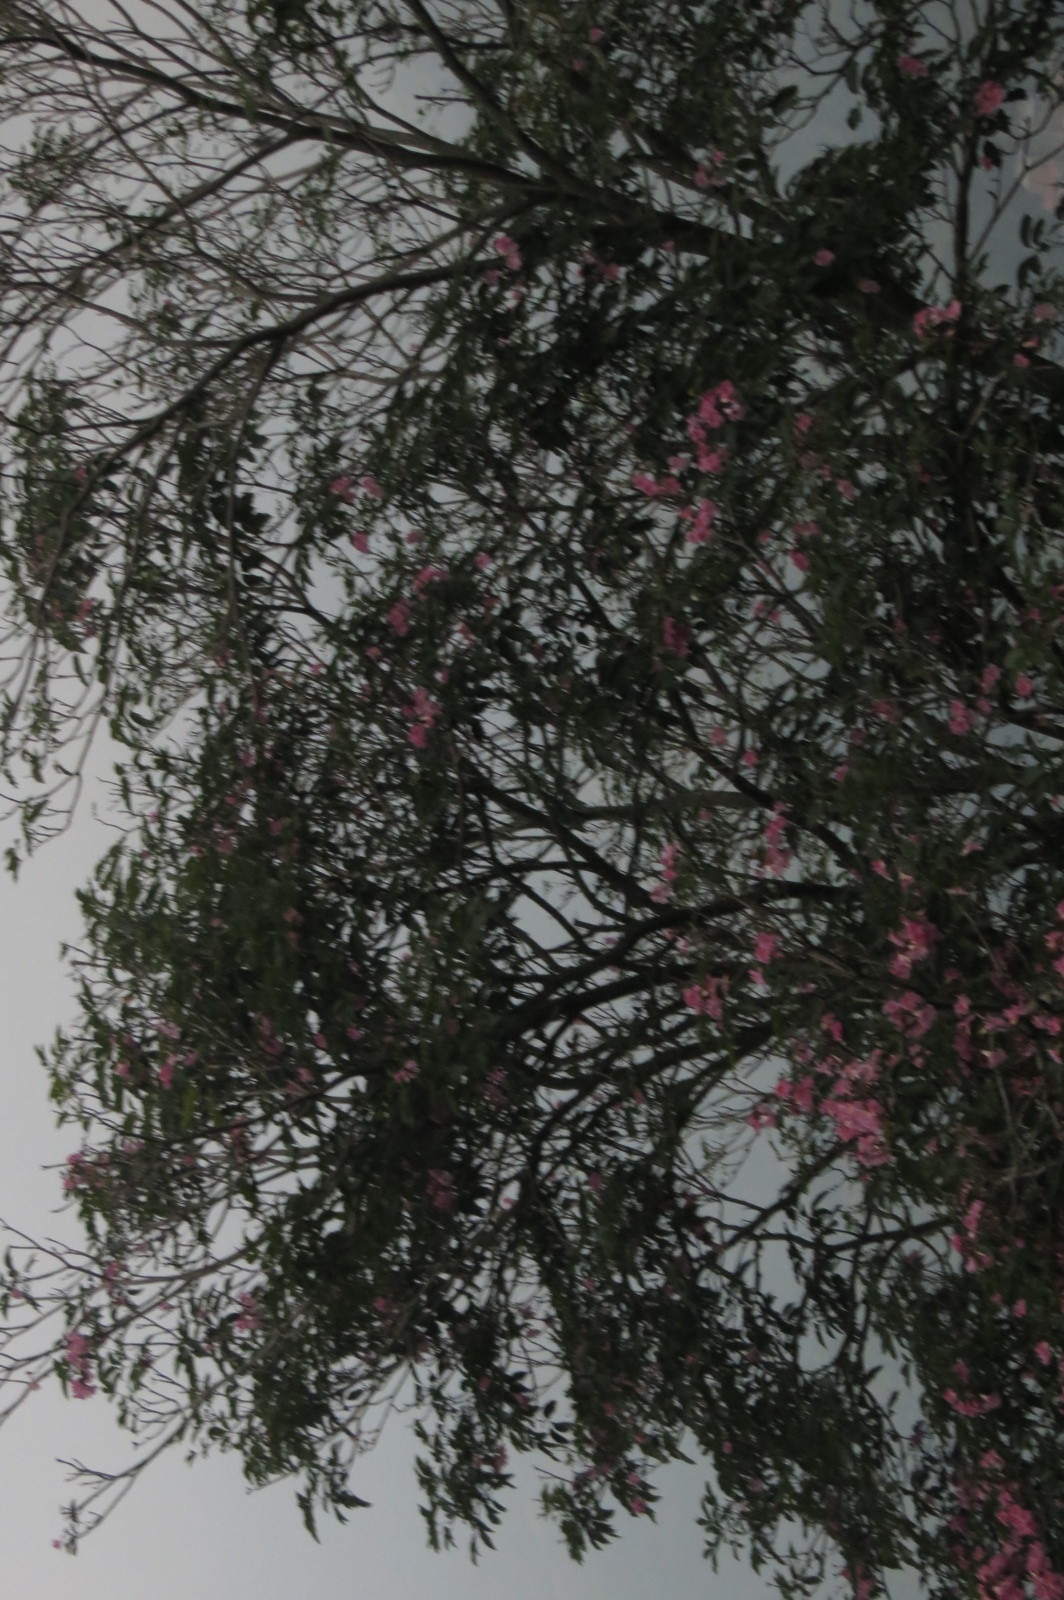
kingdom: Plantae
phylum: Tracheophyta
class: Magnoliopsida
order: Lamiales
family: Bignoniaceae
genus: Tabebuia
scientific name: Tabebuia rosea
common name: Pink poui
